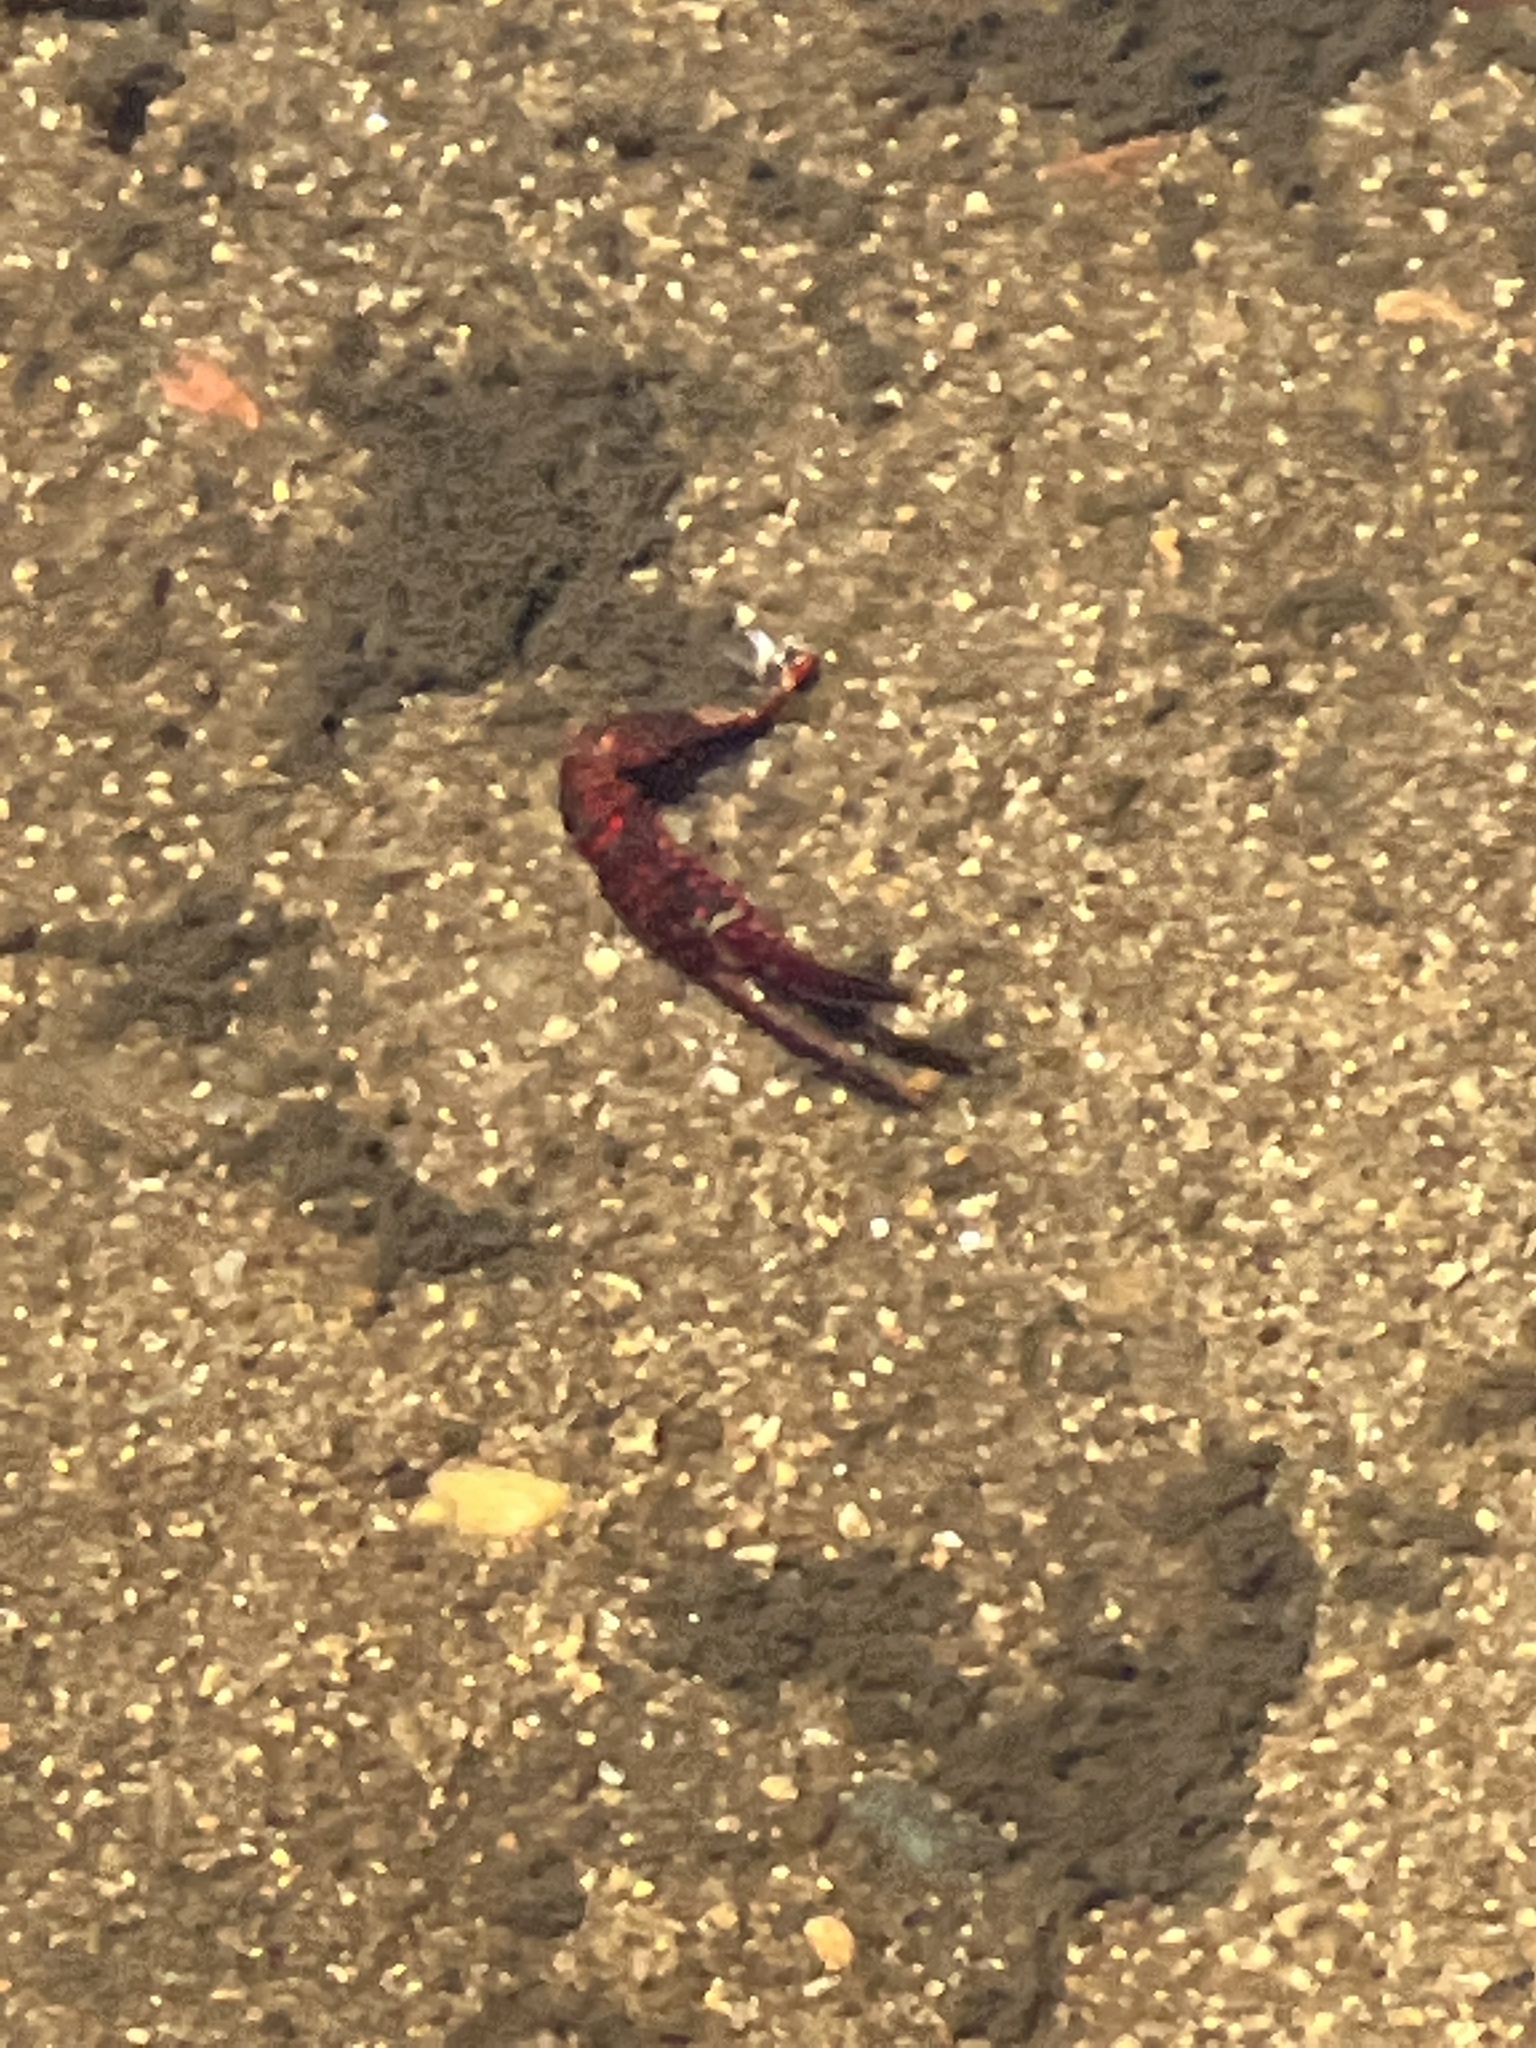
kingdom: Animalia
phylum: Arthropoda
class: Malacostraca
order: Decapoda
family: Cambaridae
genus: Procambarus
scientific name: Procambarus clarkii
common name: Red swamp crayfish
